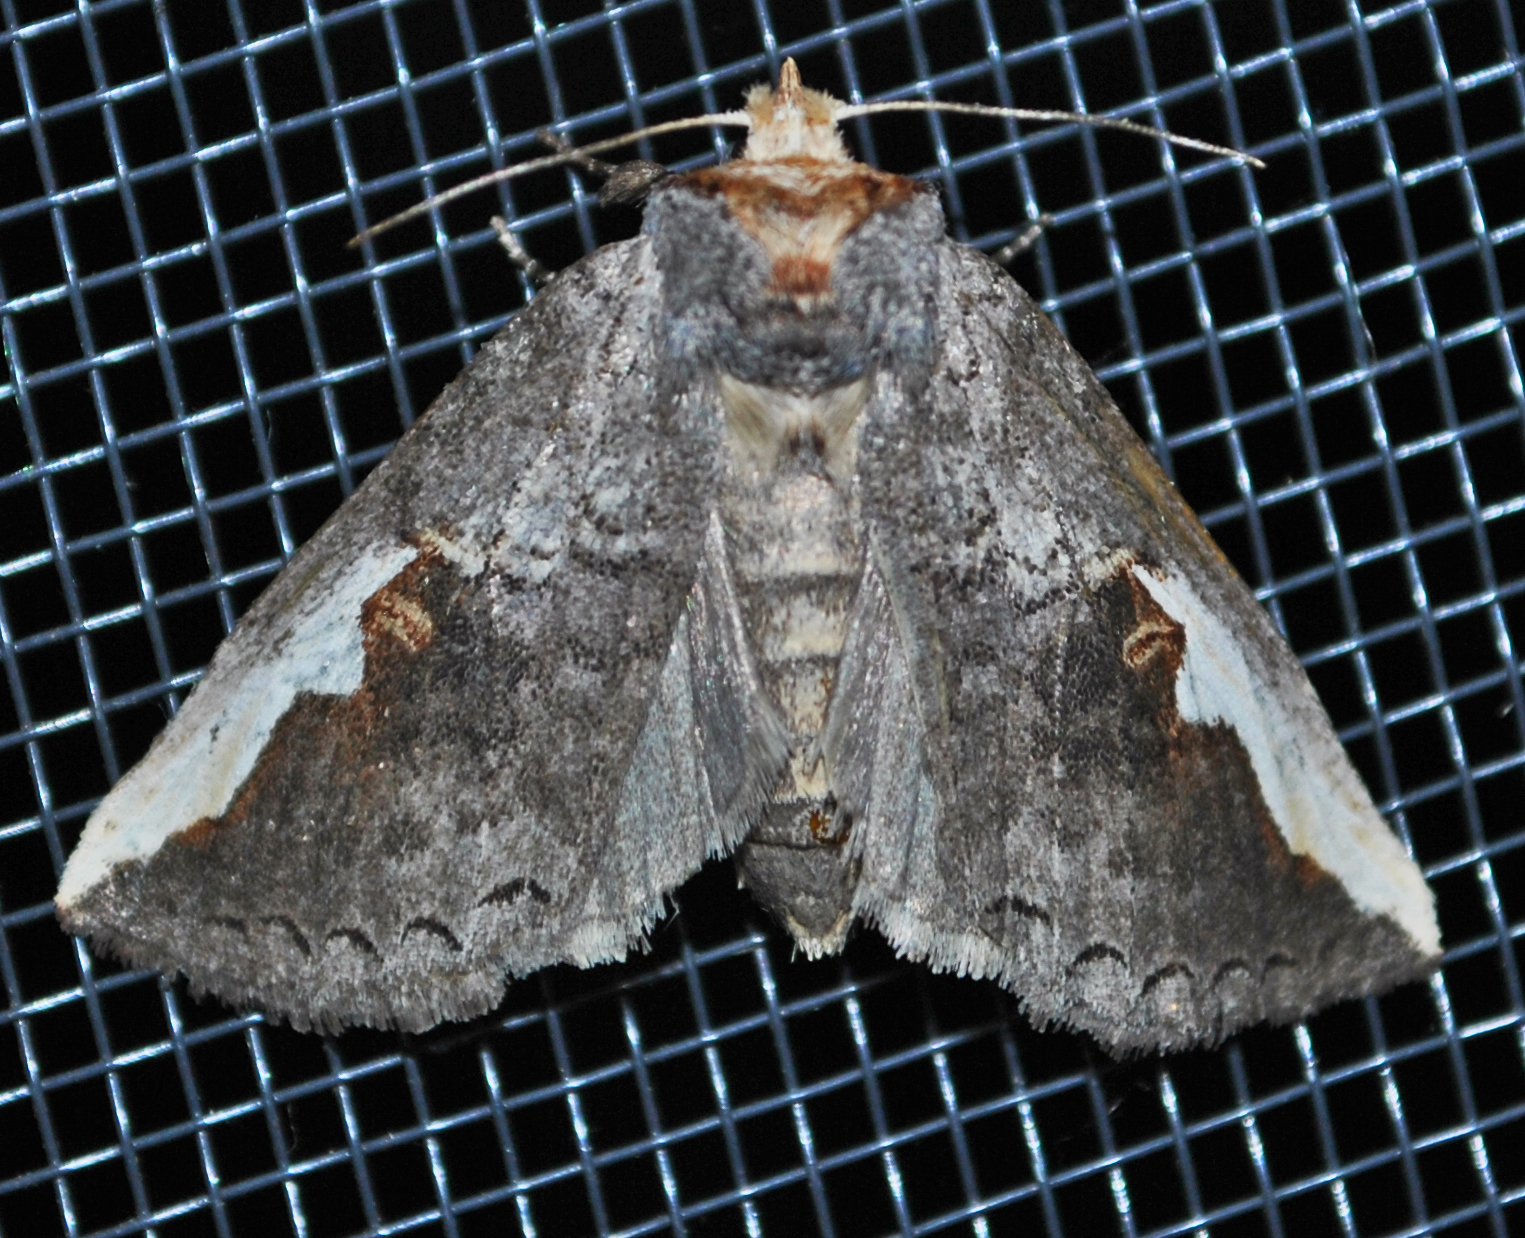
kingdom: Animalia
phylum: Arthropoda
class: Insecta
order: Lepidoptera
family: Notodontidae
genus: Symmerista
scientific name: Symmerista
